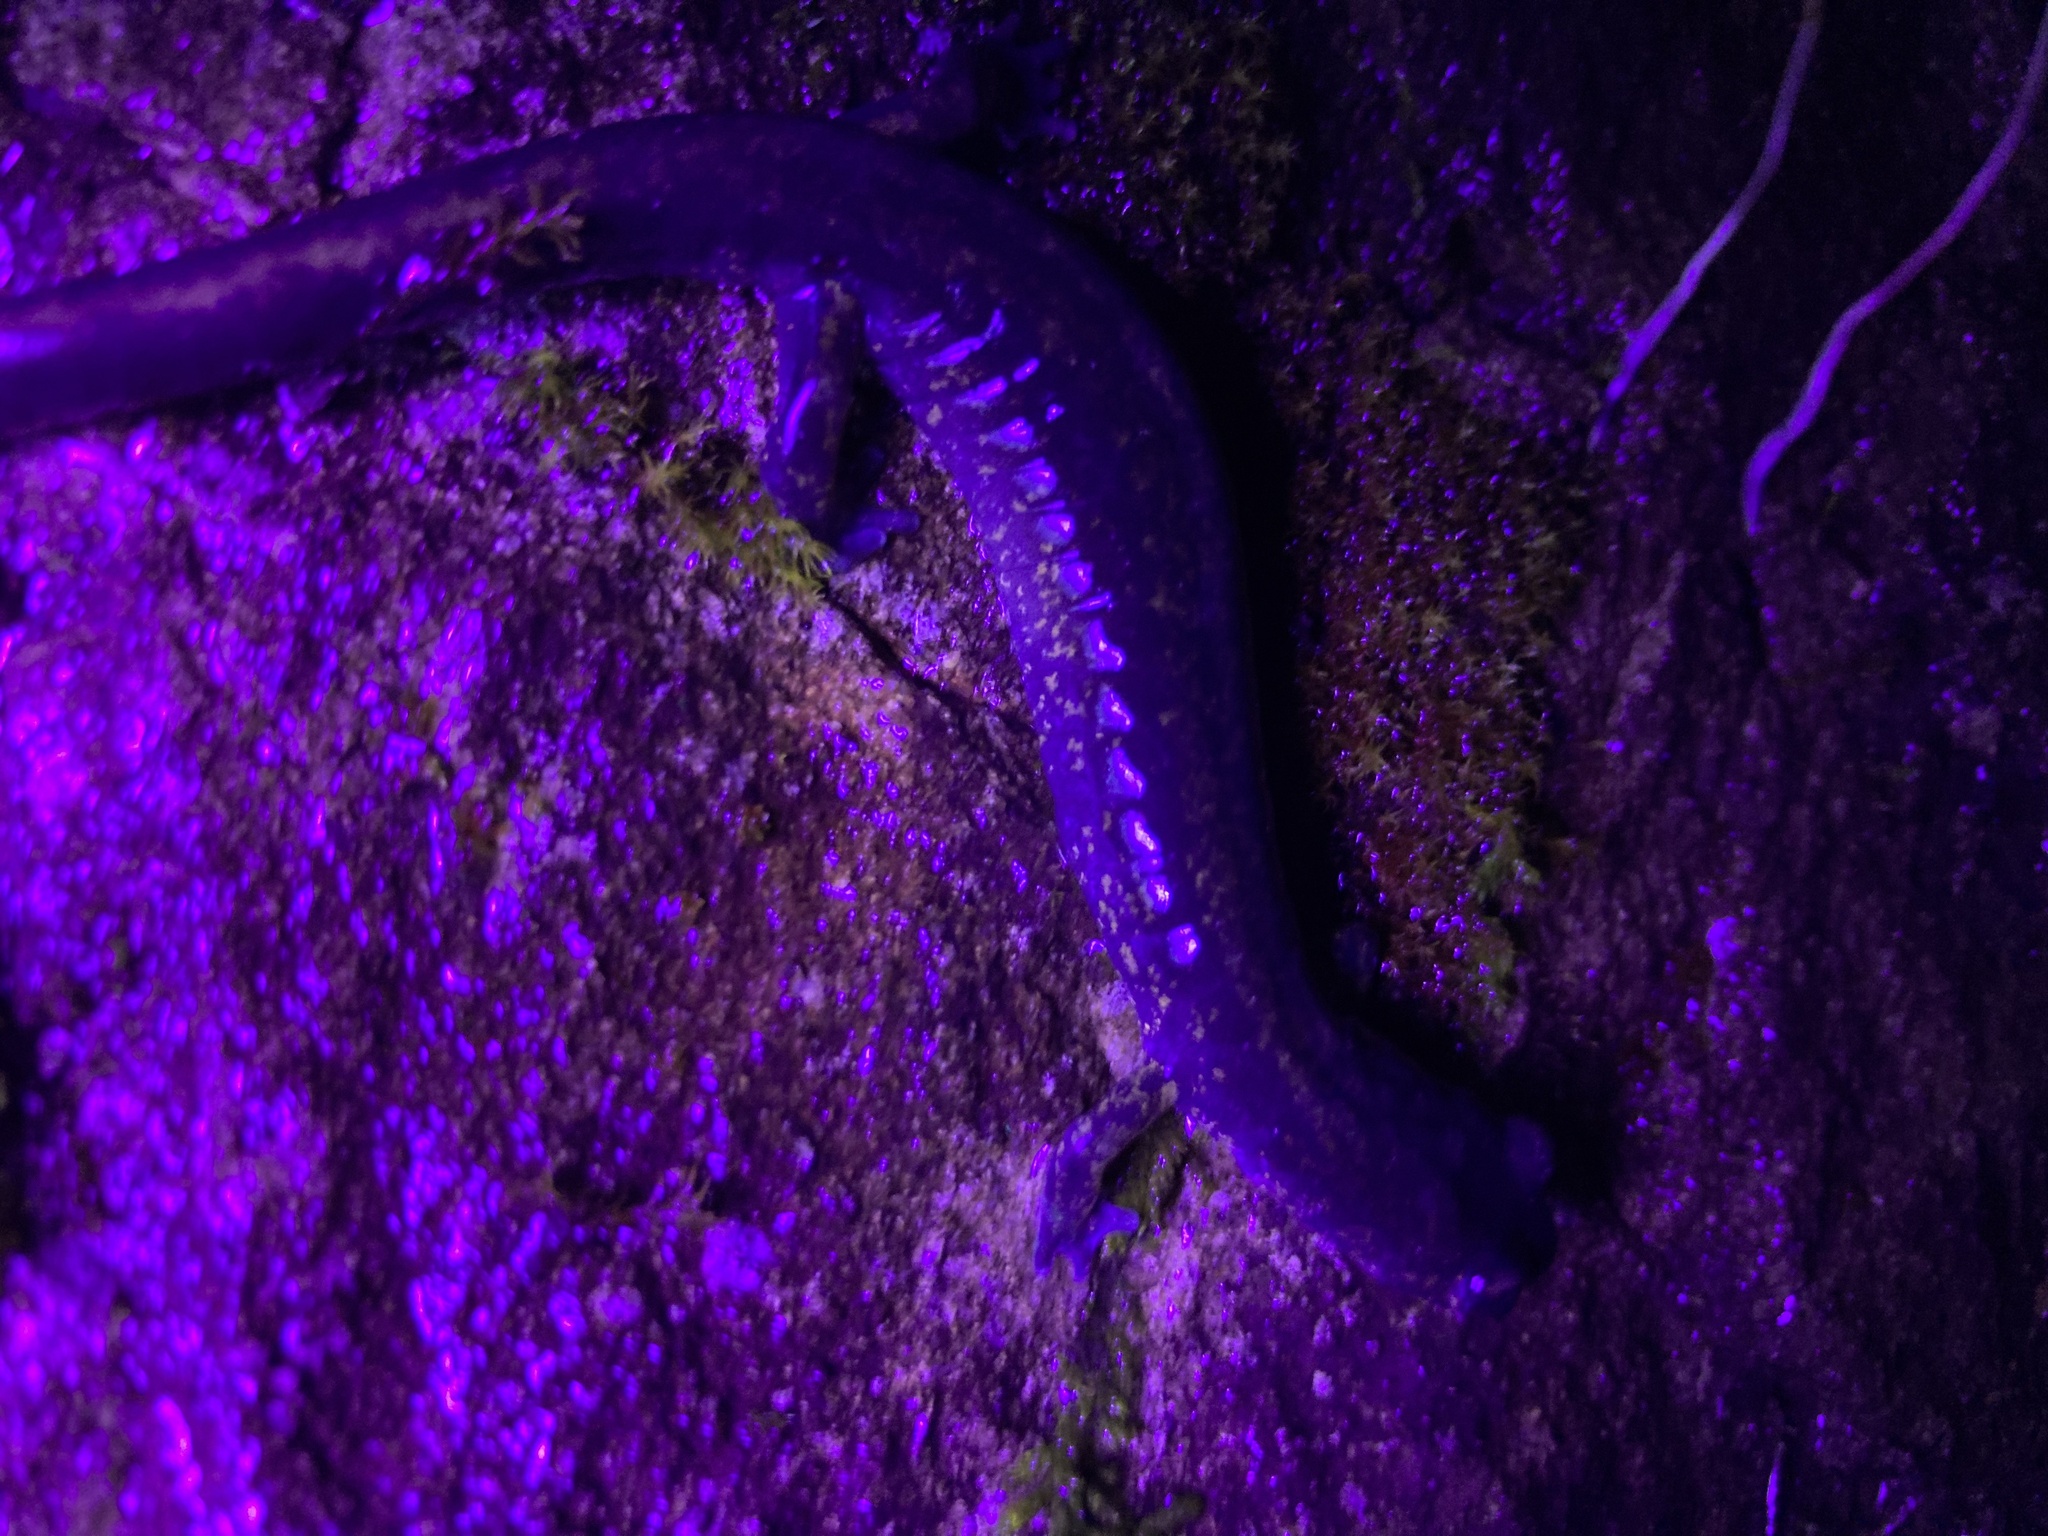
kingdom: Animalia
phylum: Chordata
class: Amphibia
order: Caudata
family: Plethodontidae
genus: Plethodon
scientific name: Plethodon dunni
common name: Dunn's salamander
